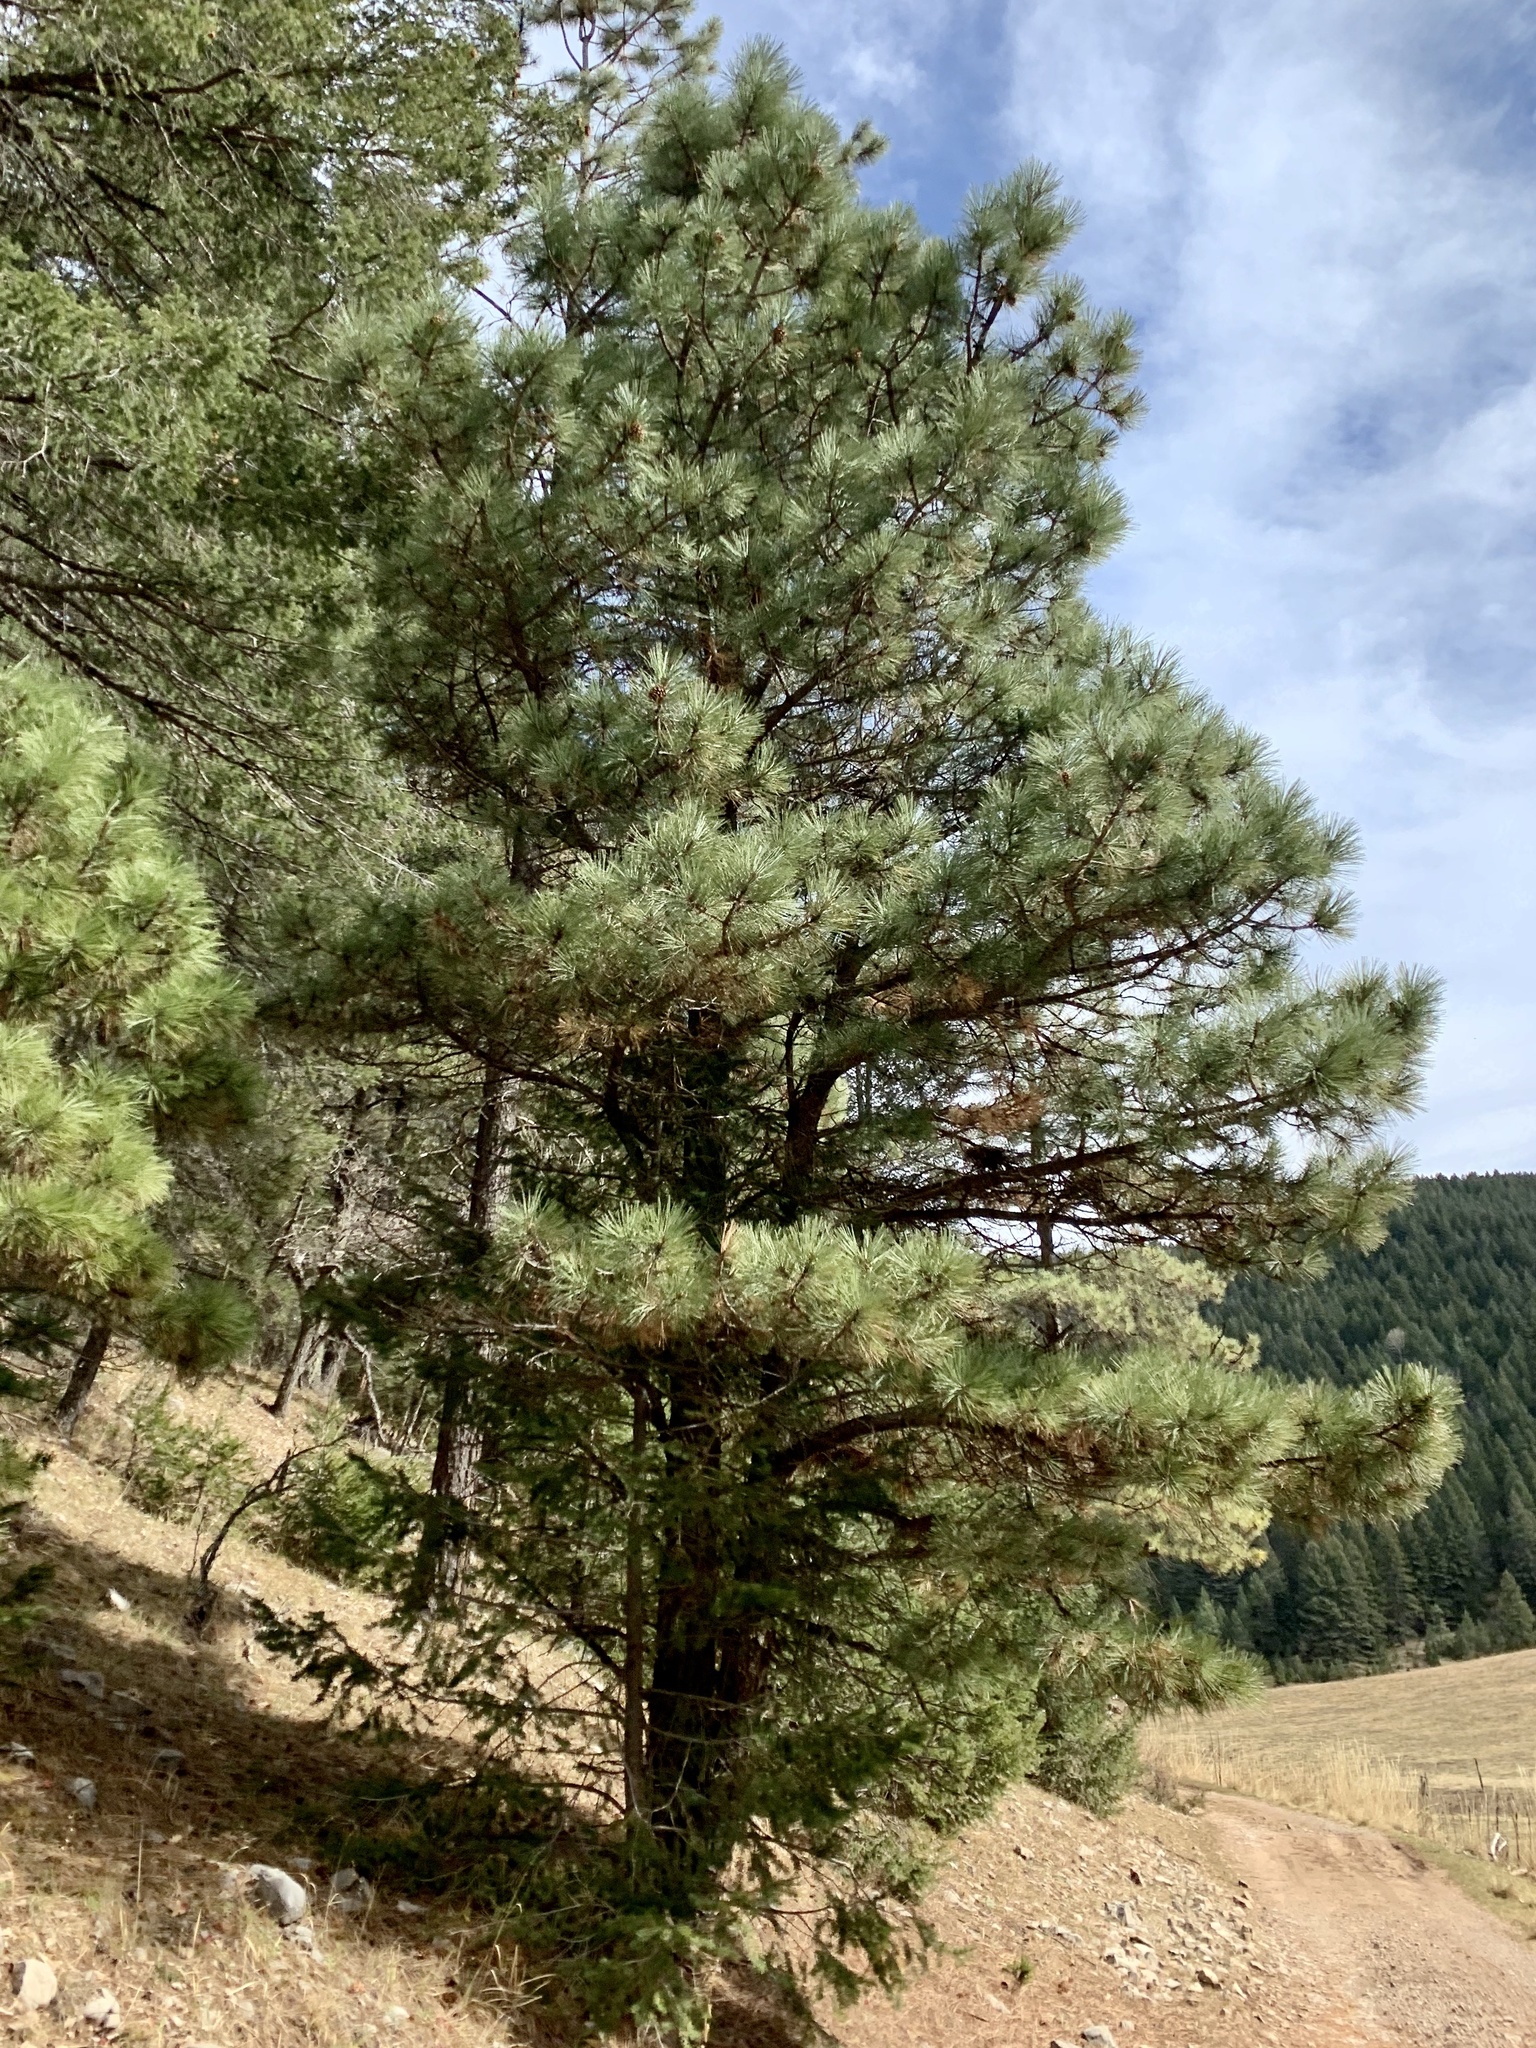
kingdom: Plantae
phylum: Tracheophyta
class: Pinopsida
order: Pinales
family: Pinaceae
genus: Pinus
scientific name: Pinus ponderosa
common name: Western yellow-pine
